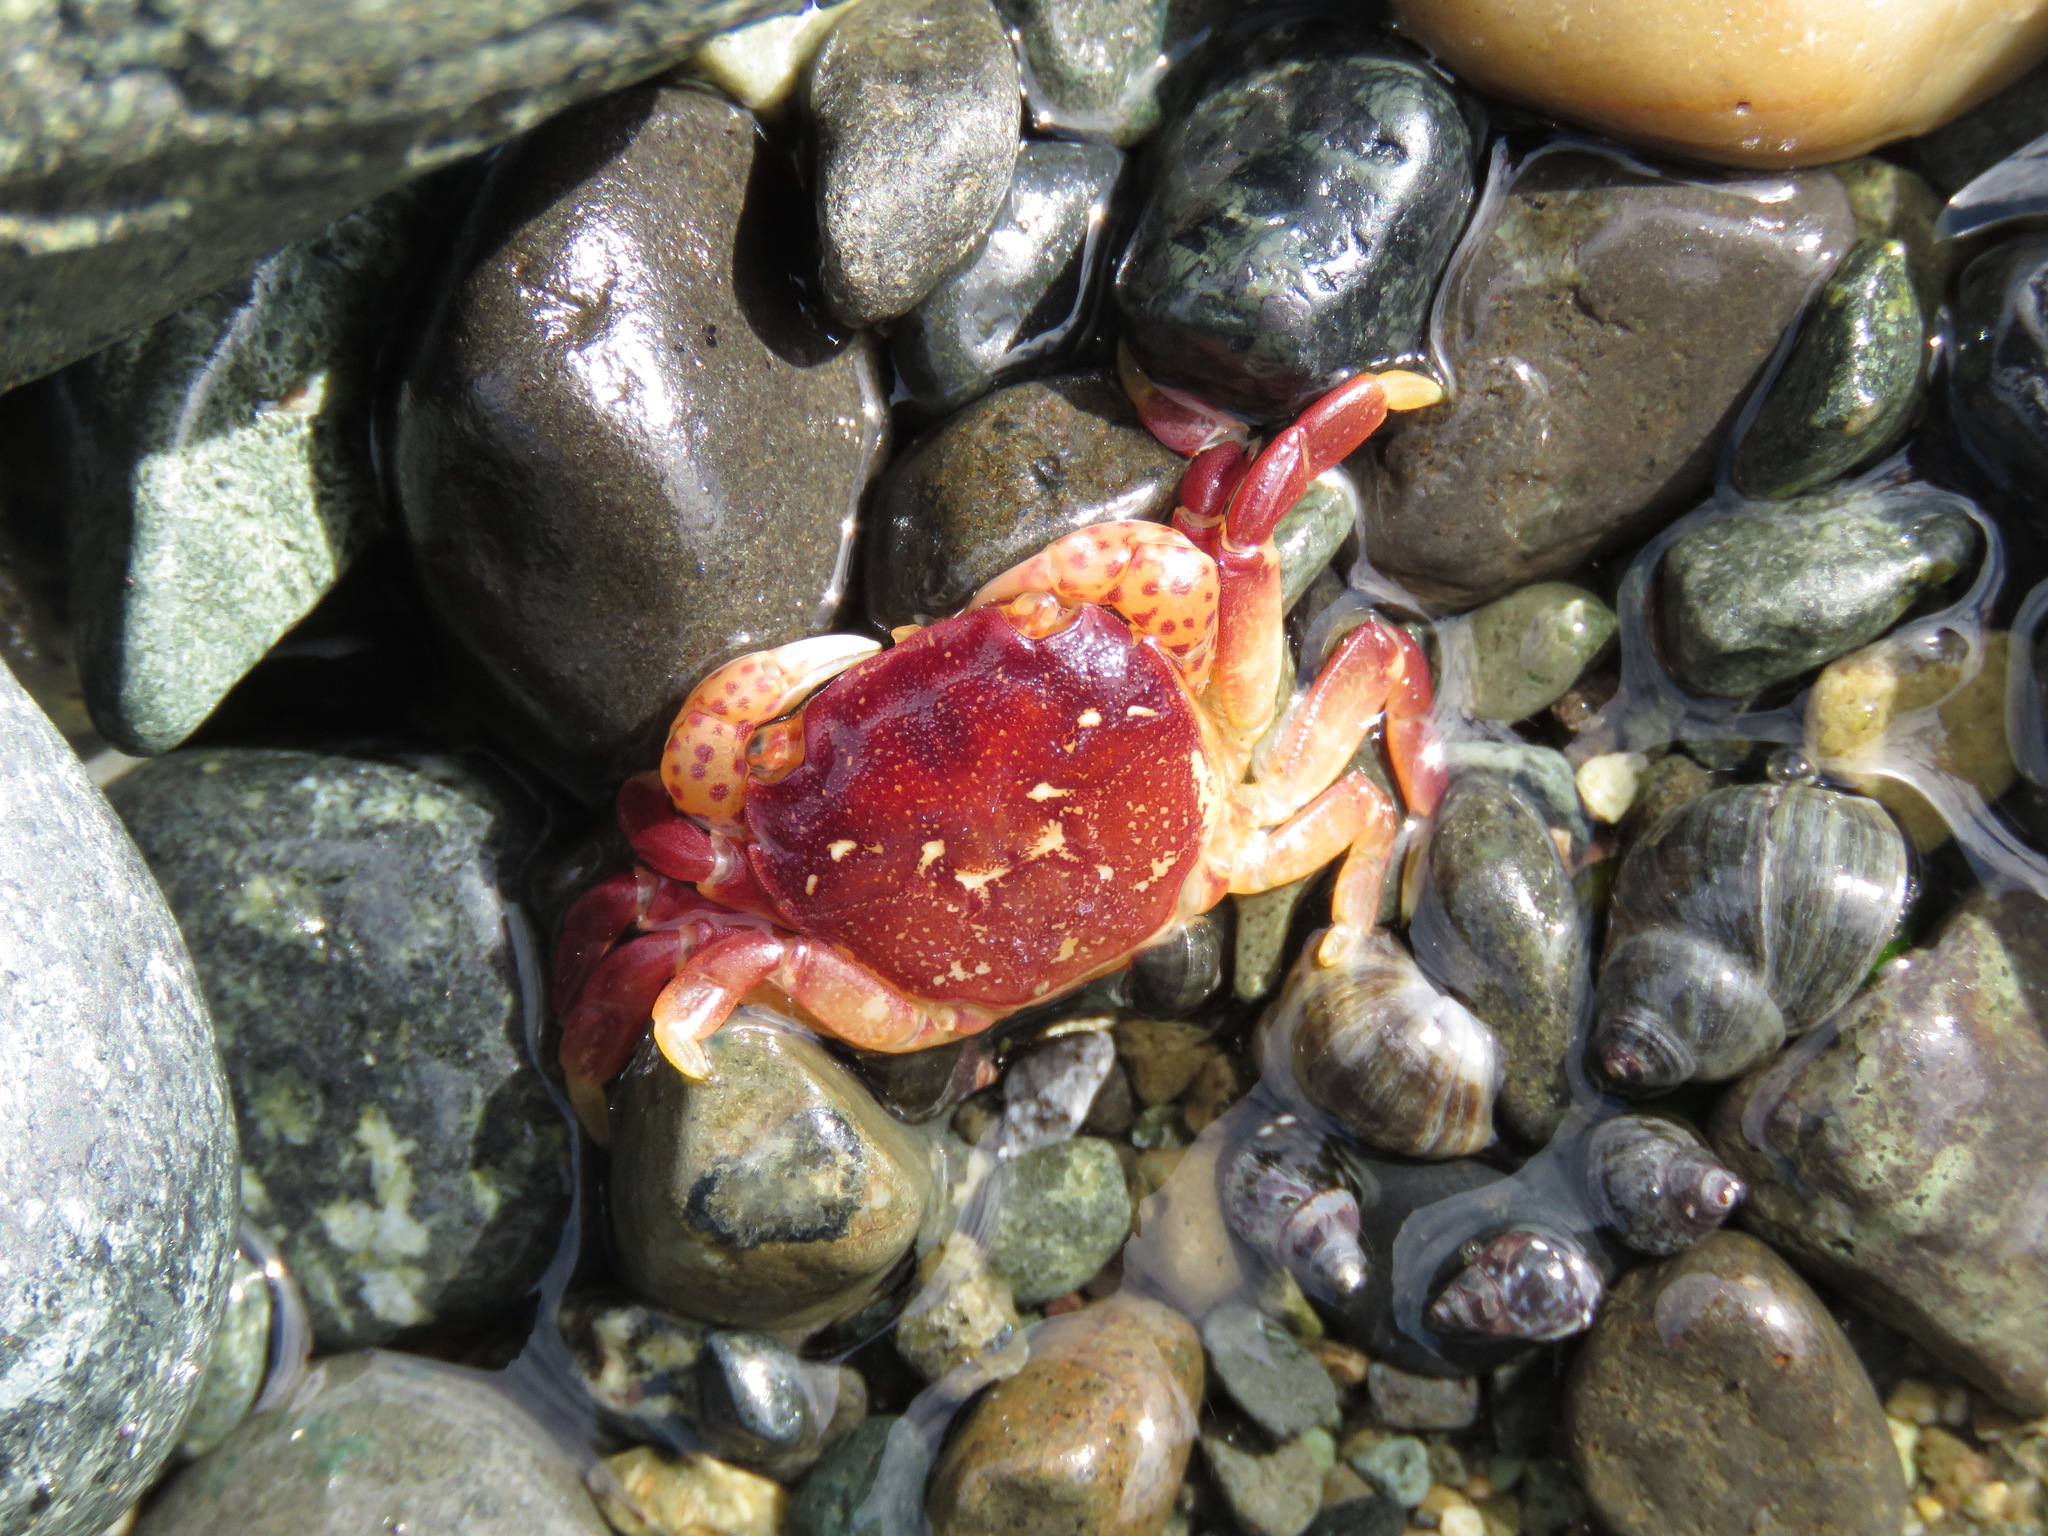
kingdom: Animalia
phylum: Arthropoda
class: Malacostraca
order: Decapoda
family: Varunidae
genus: Hemigrapsus
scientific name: Hemigrapsus nudus
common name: Purple shore crab
